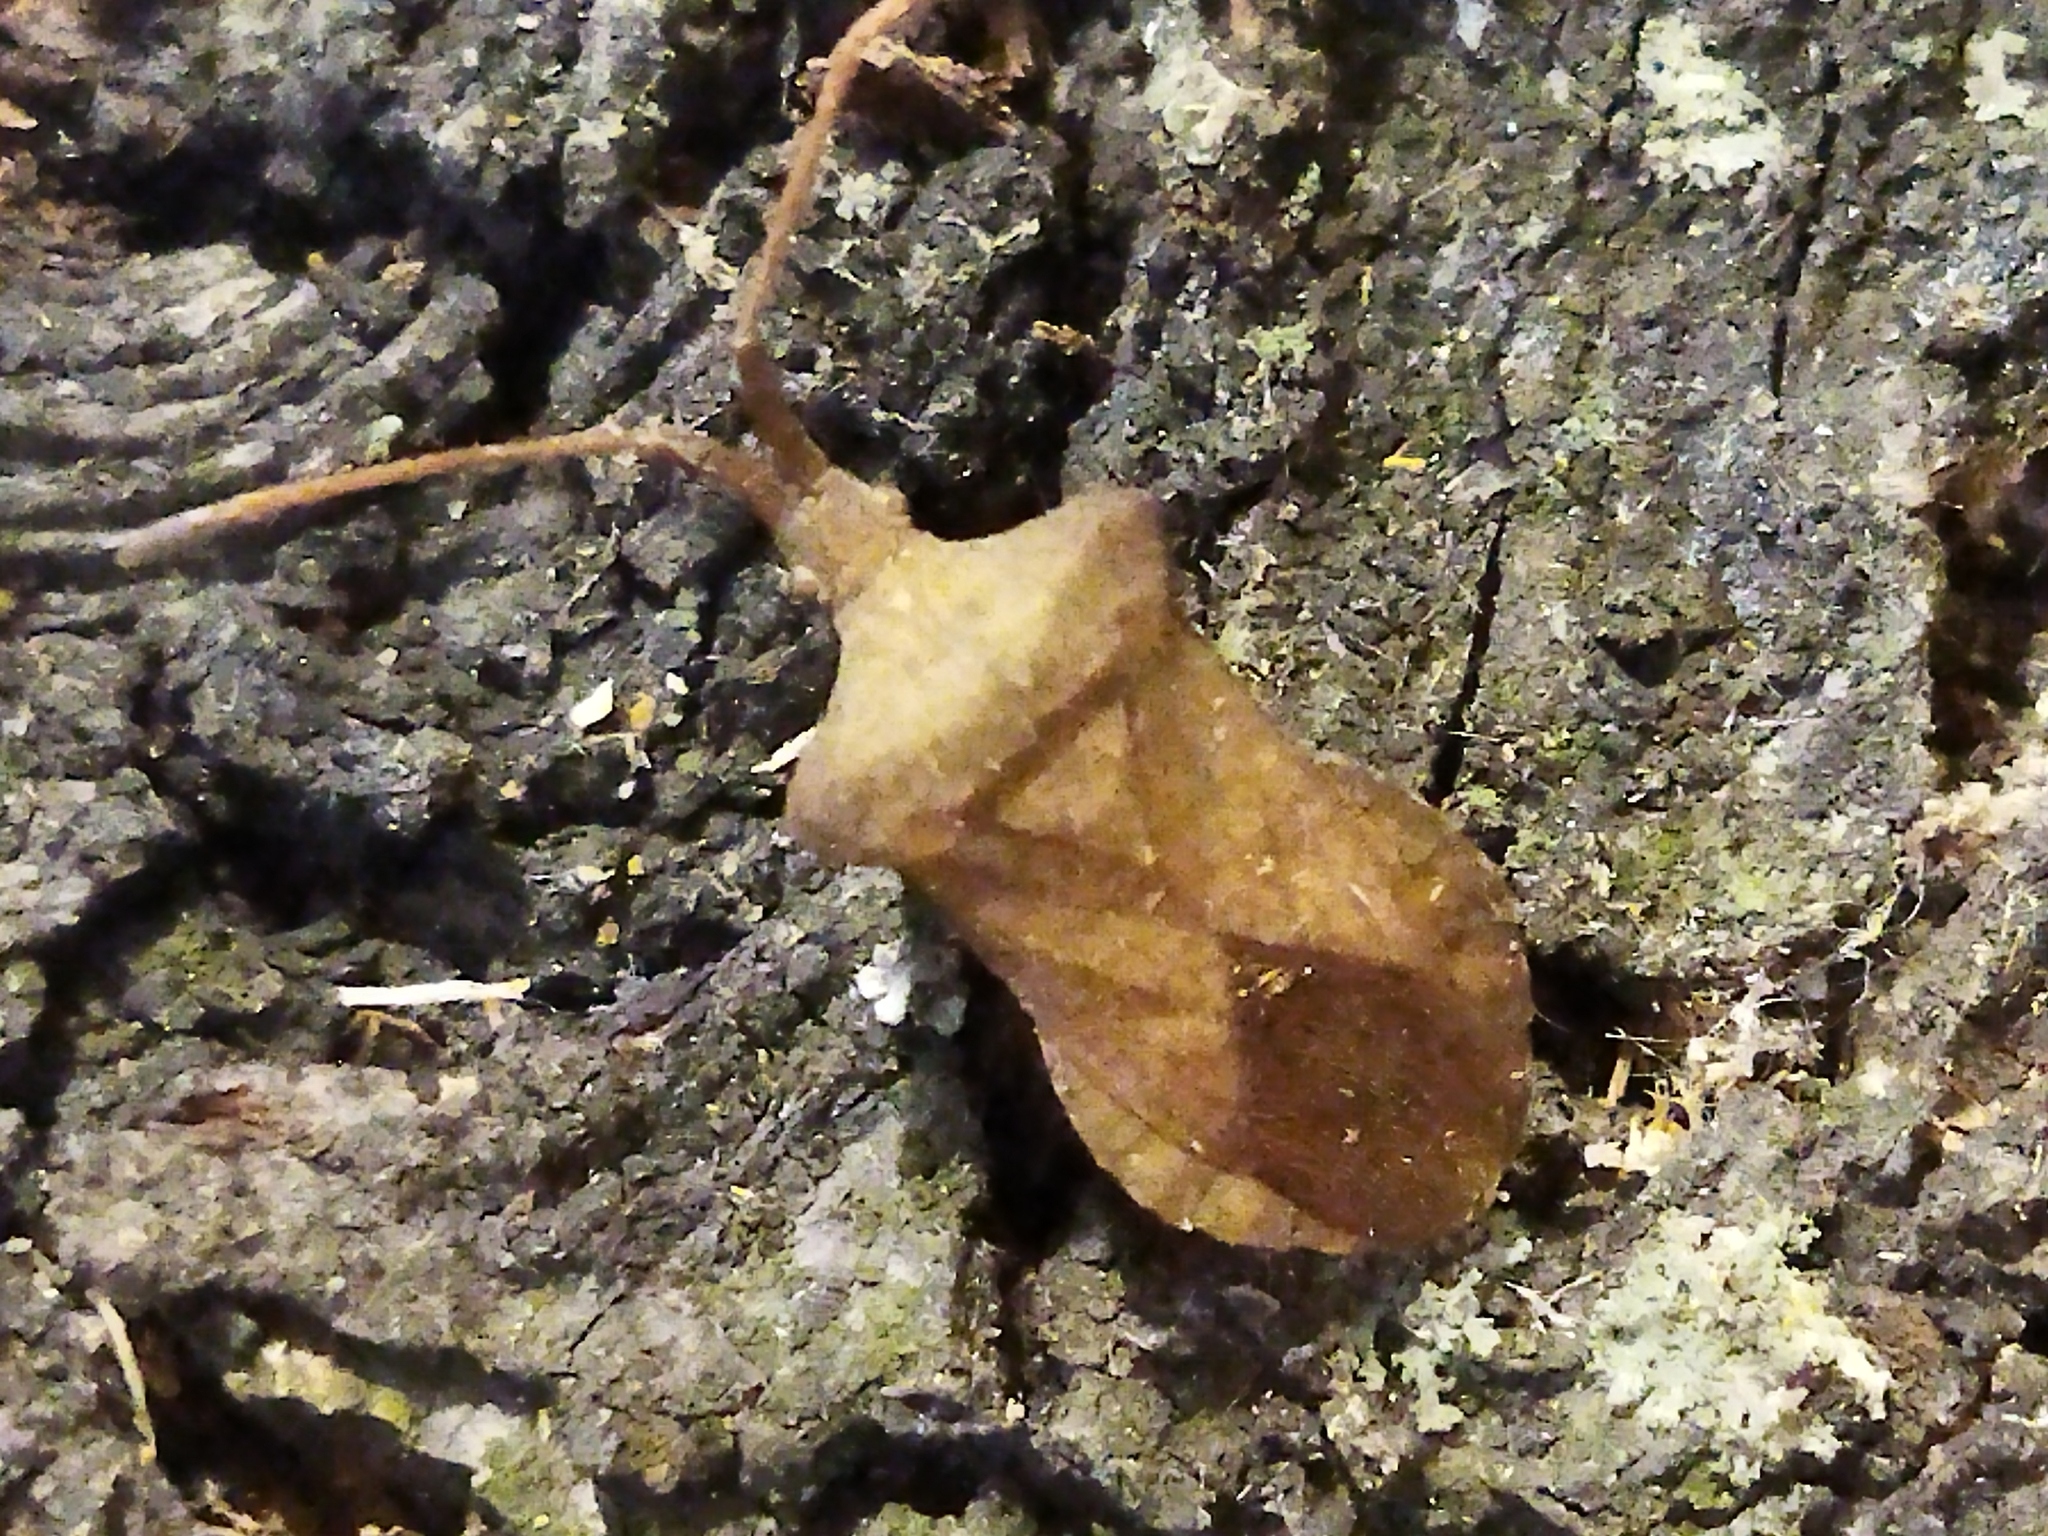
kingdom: Animalia
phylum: Arthropoda
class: Insecta
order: Hemiptera
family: Coreidae
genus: Coreus
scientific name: Coreus marginatus
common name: Dock bug
